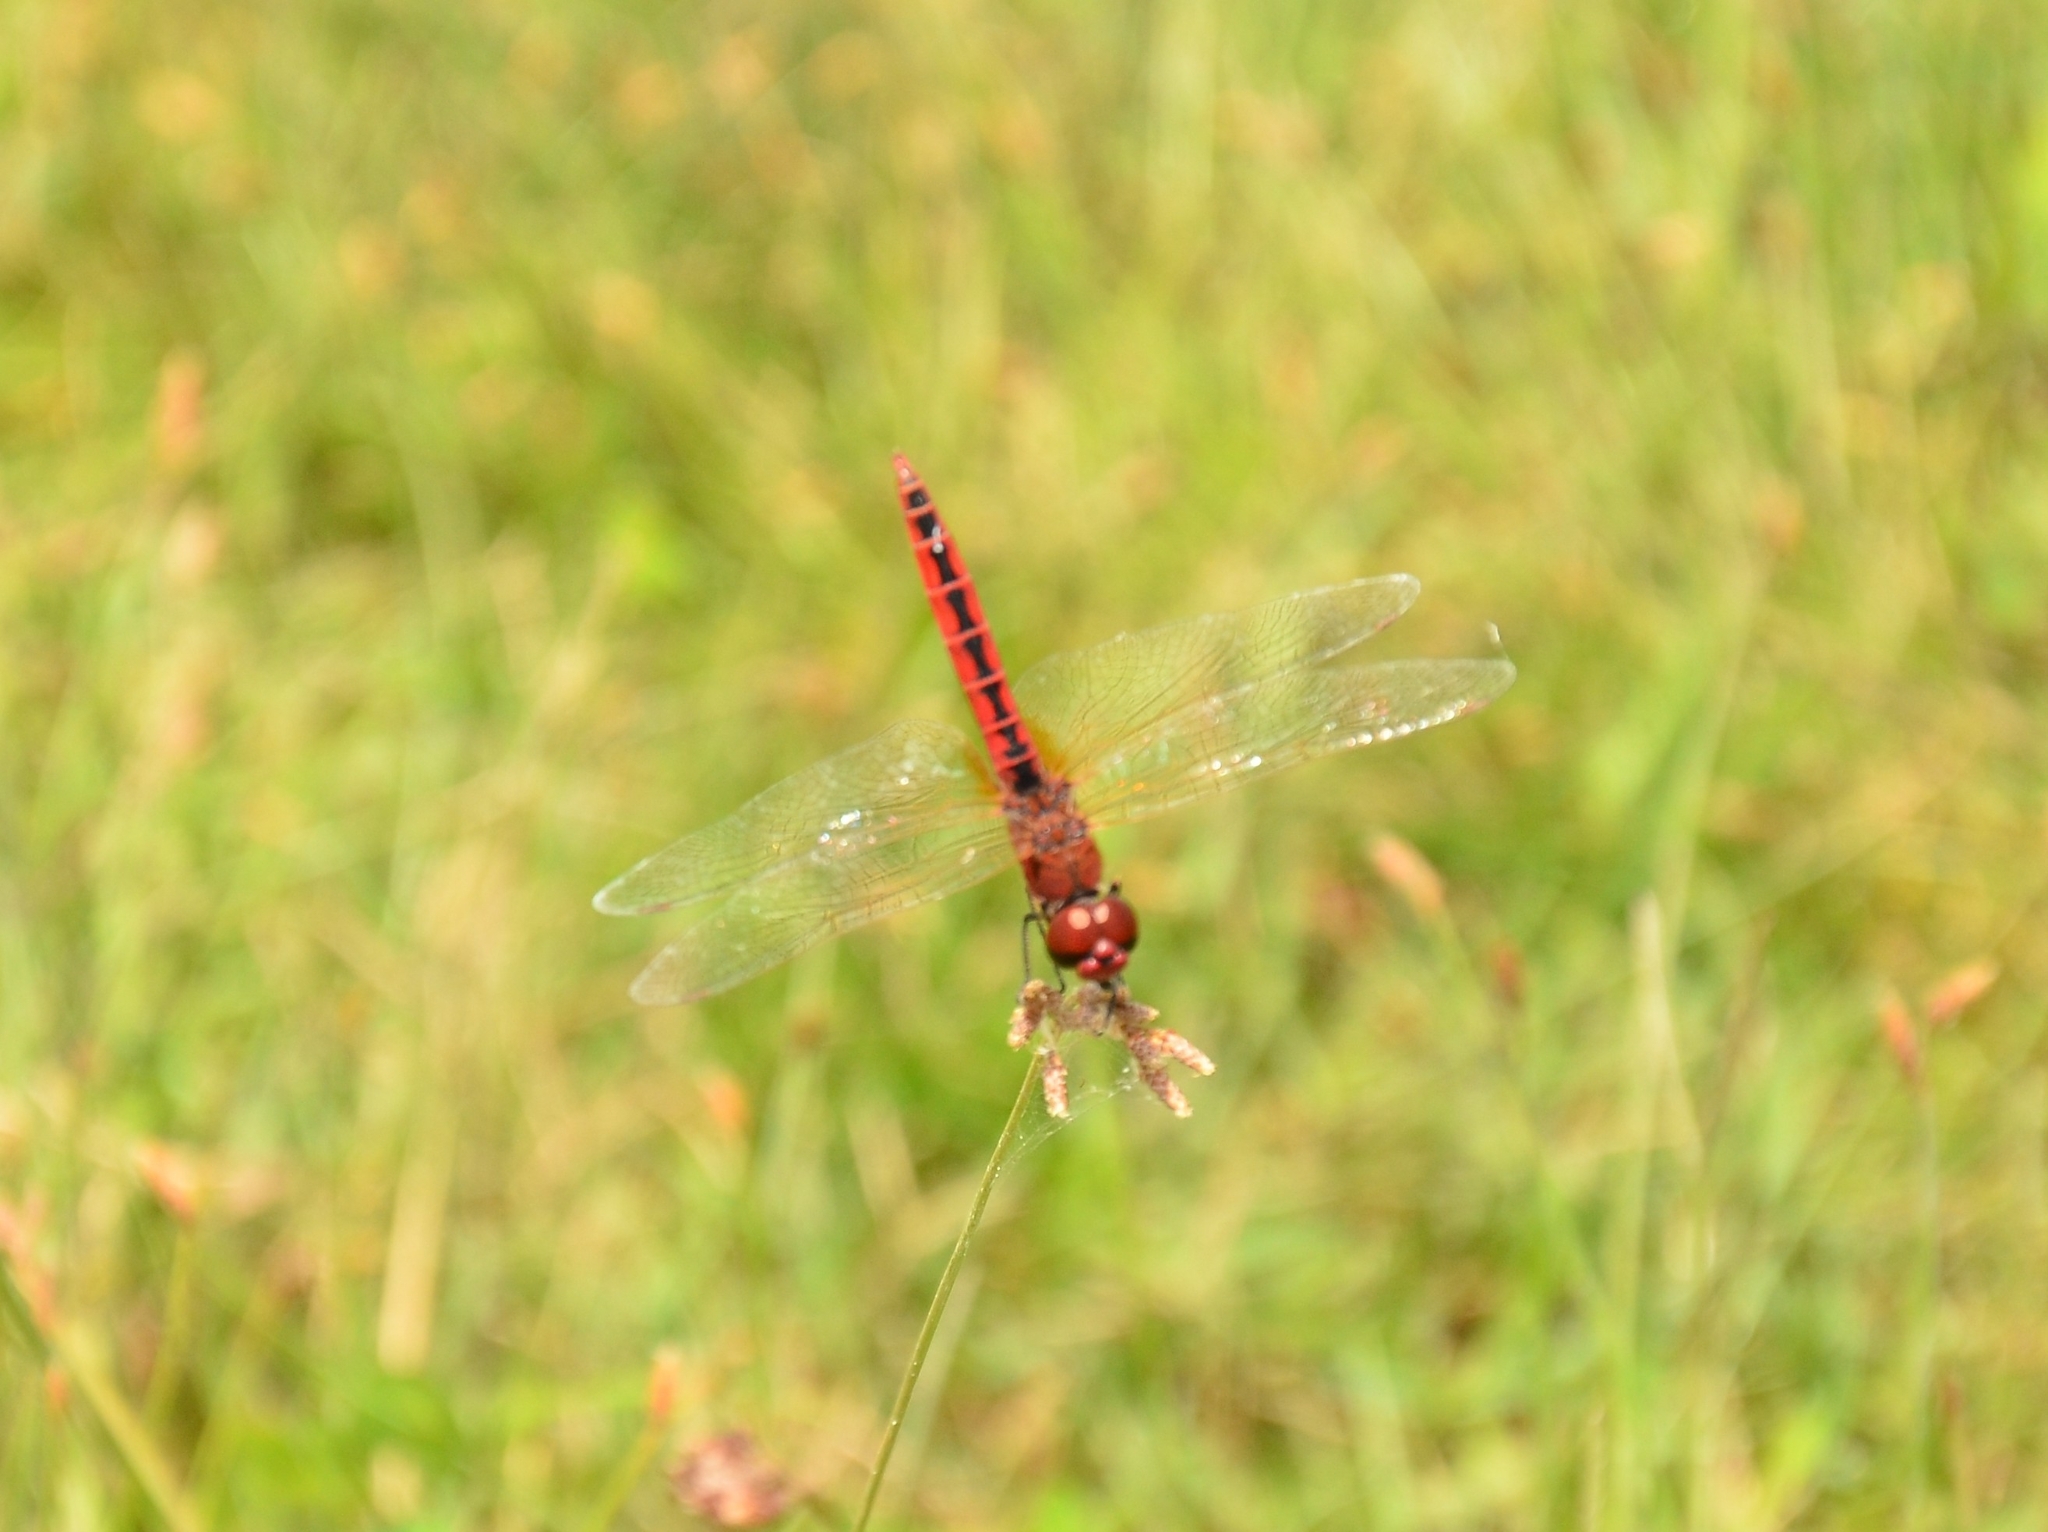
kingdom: Animalia
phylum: Arthropoda
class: Insecta
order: Odonata
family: Libellulidae
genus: Macrodiplax
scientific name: Macrodiplax cora
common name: Coastal glider
